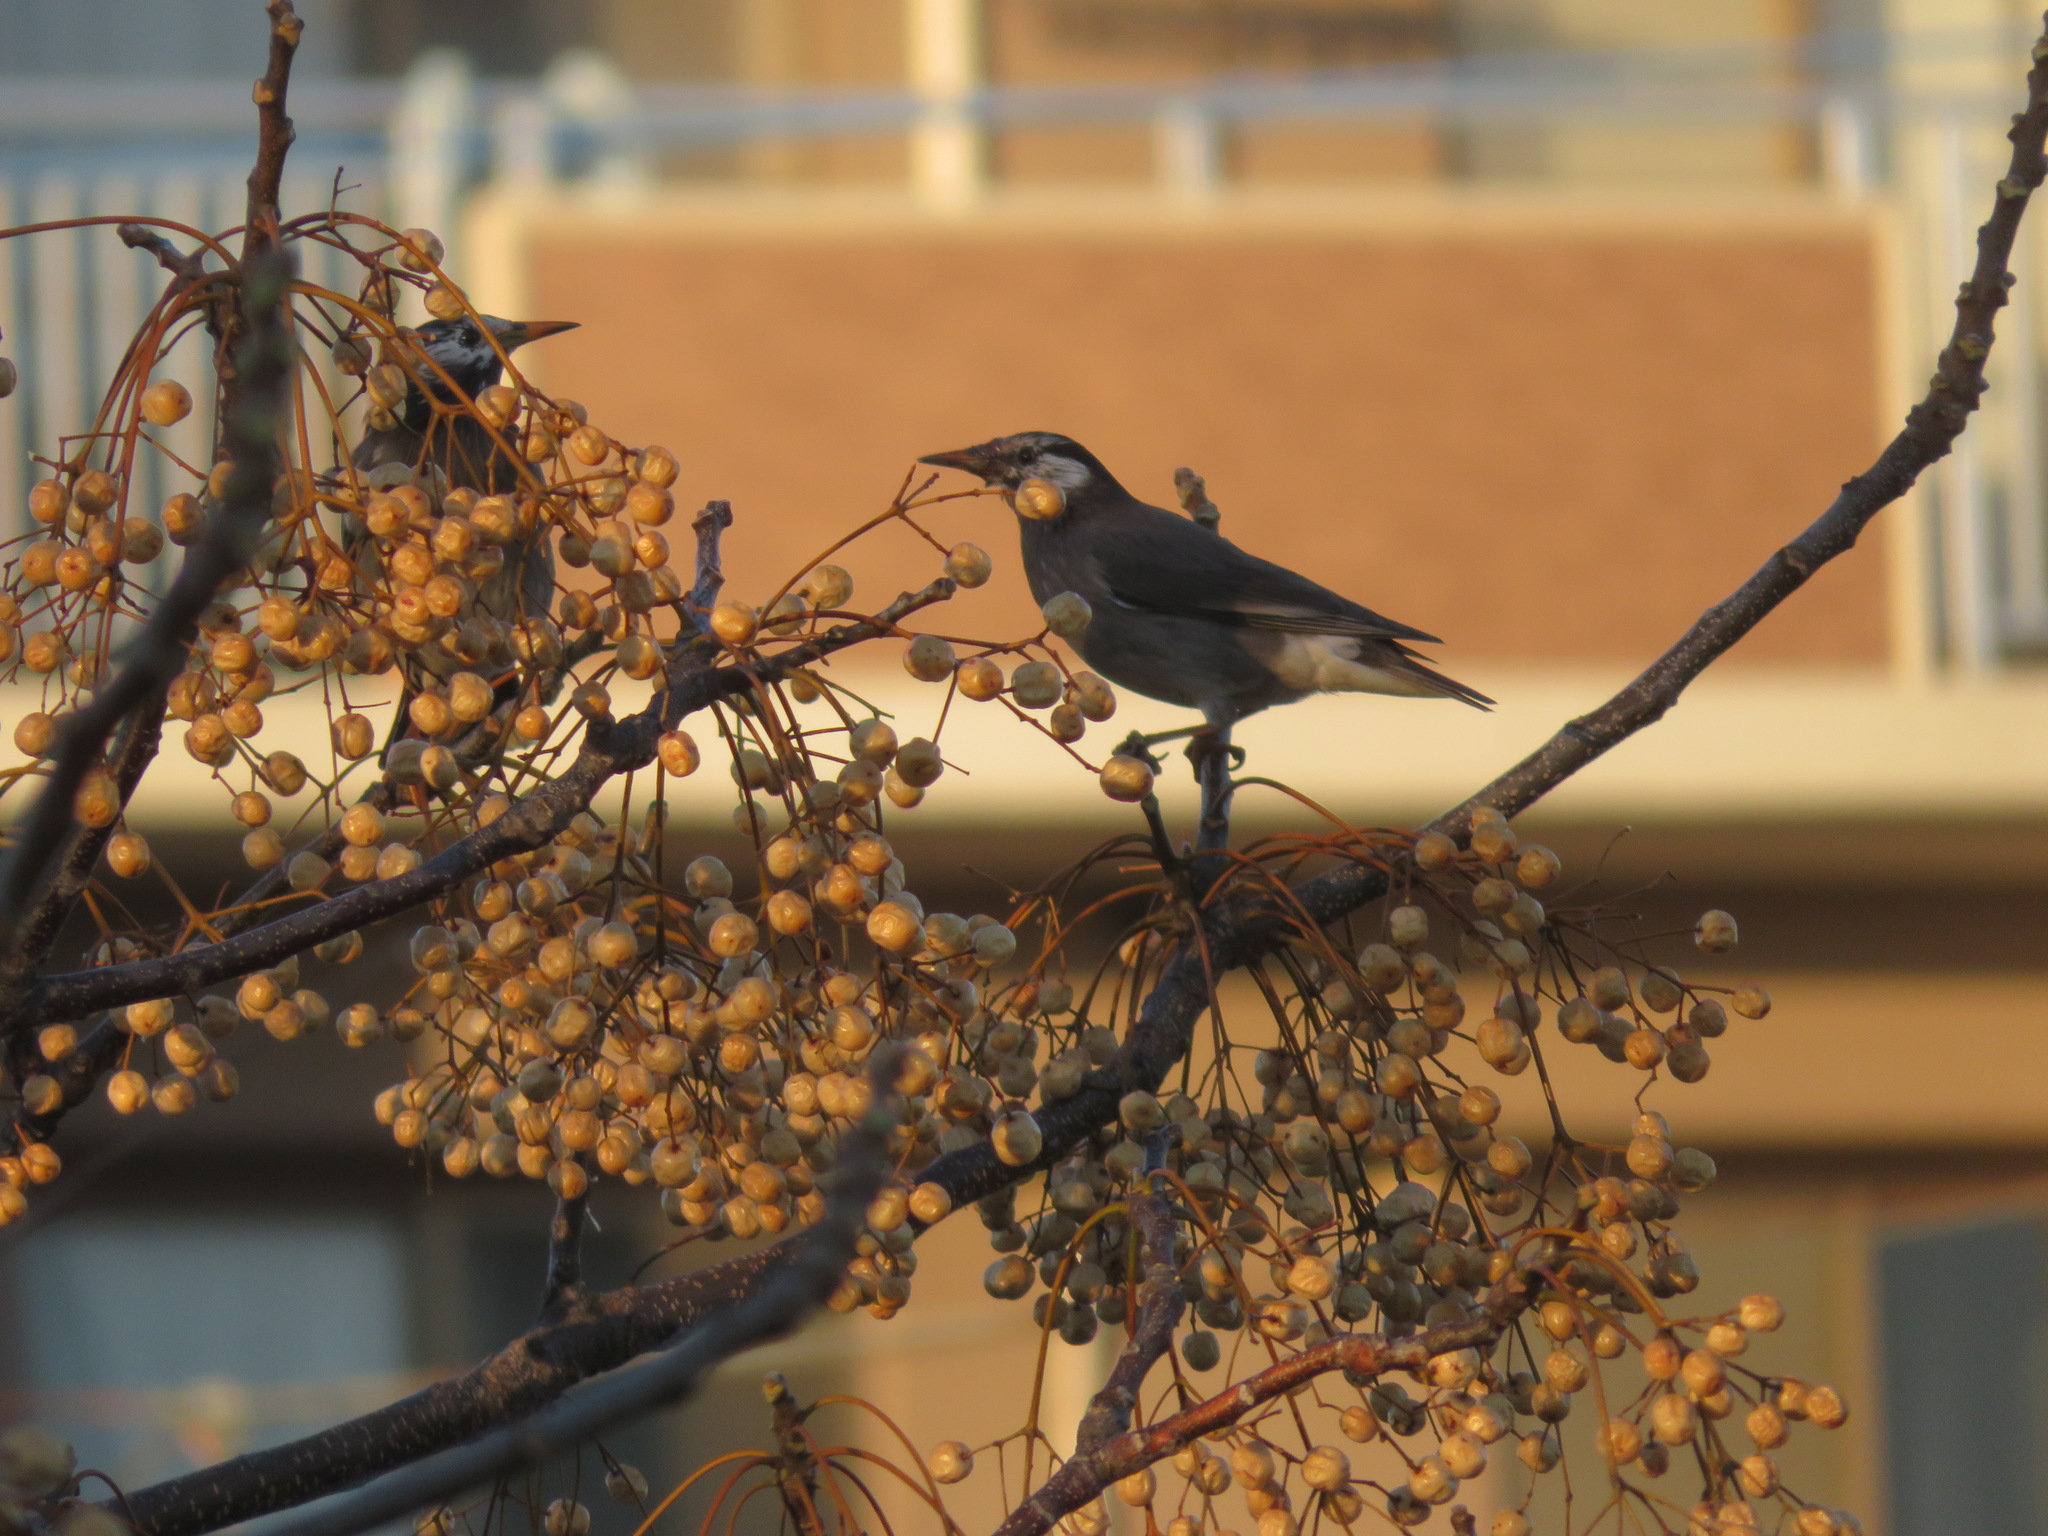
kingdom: Animalia
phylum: Chordata
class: Aves
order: Passeriformes
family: Sturnidae
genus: Spodiopsar
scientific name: Spodiopsar cineraceus
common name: White-cheeked starling
